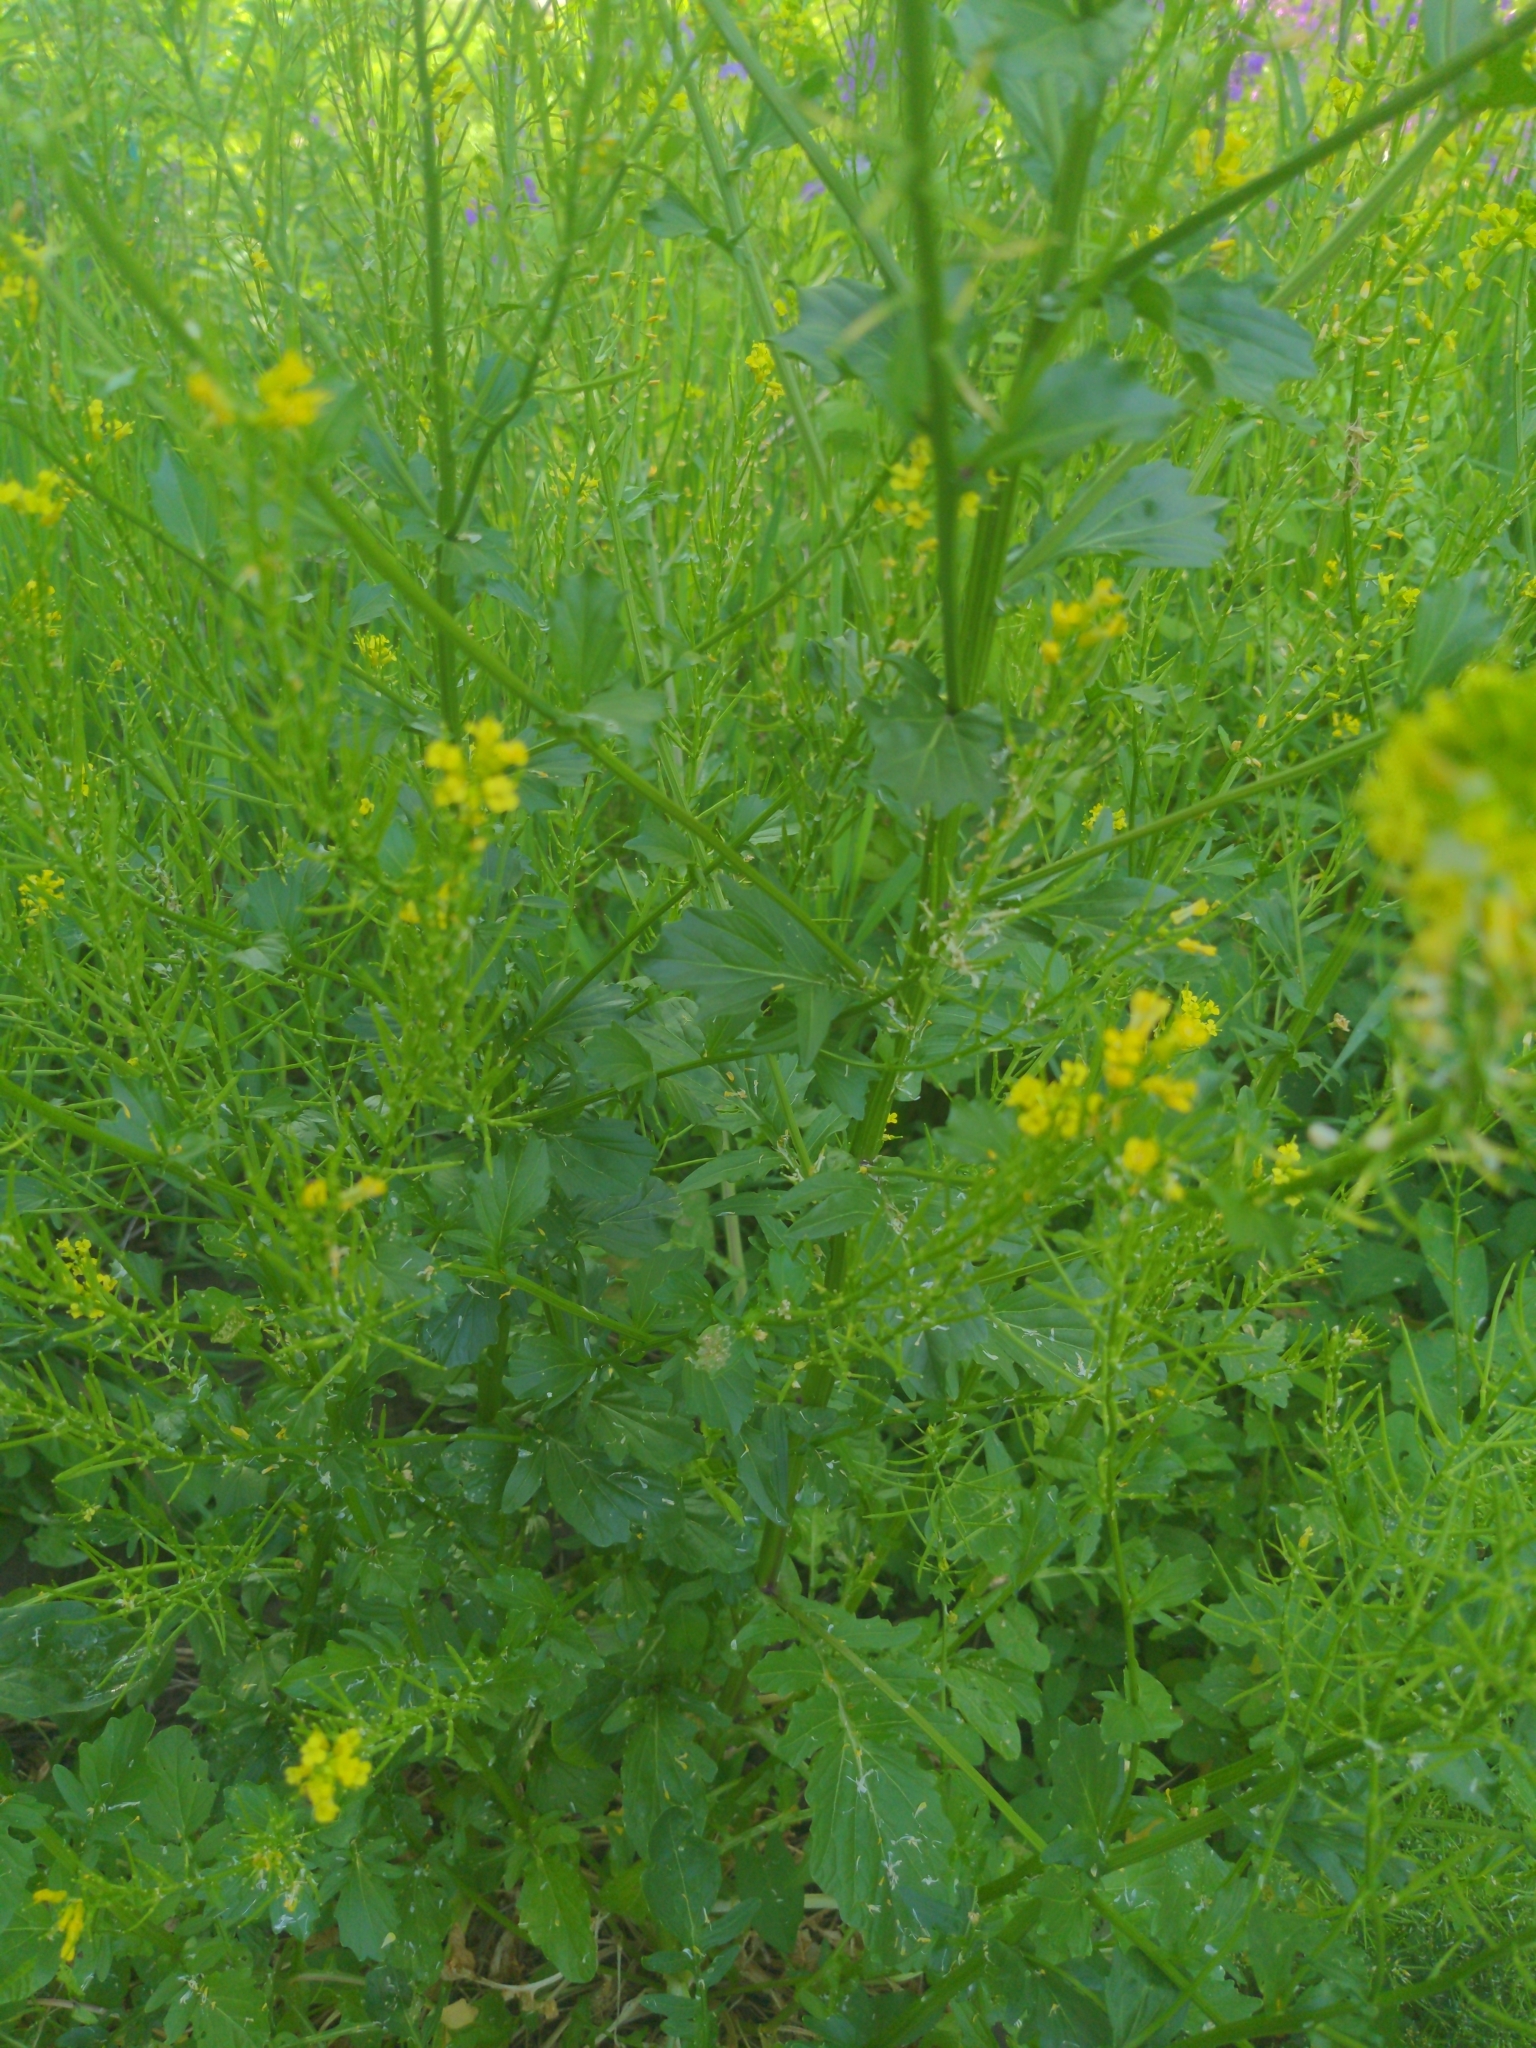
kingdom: Plantae
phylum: Tracheophyta
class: Magnoliopsida
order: Brassicales
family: Brassicaceae
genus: Barbarea
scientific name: Barbarea vulgaris
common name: Cressy-greens
